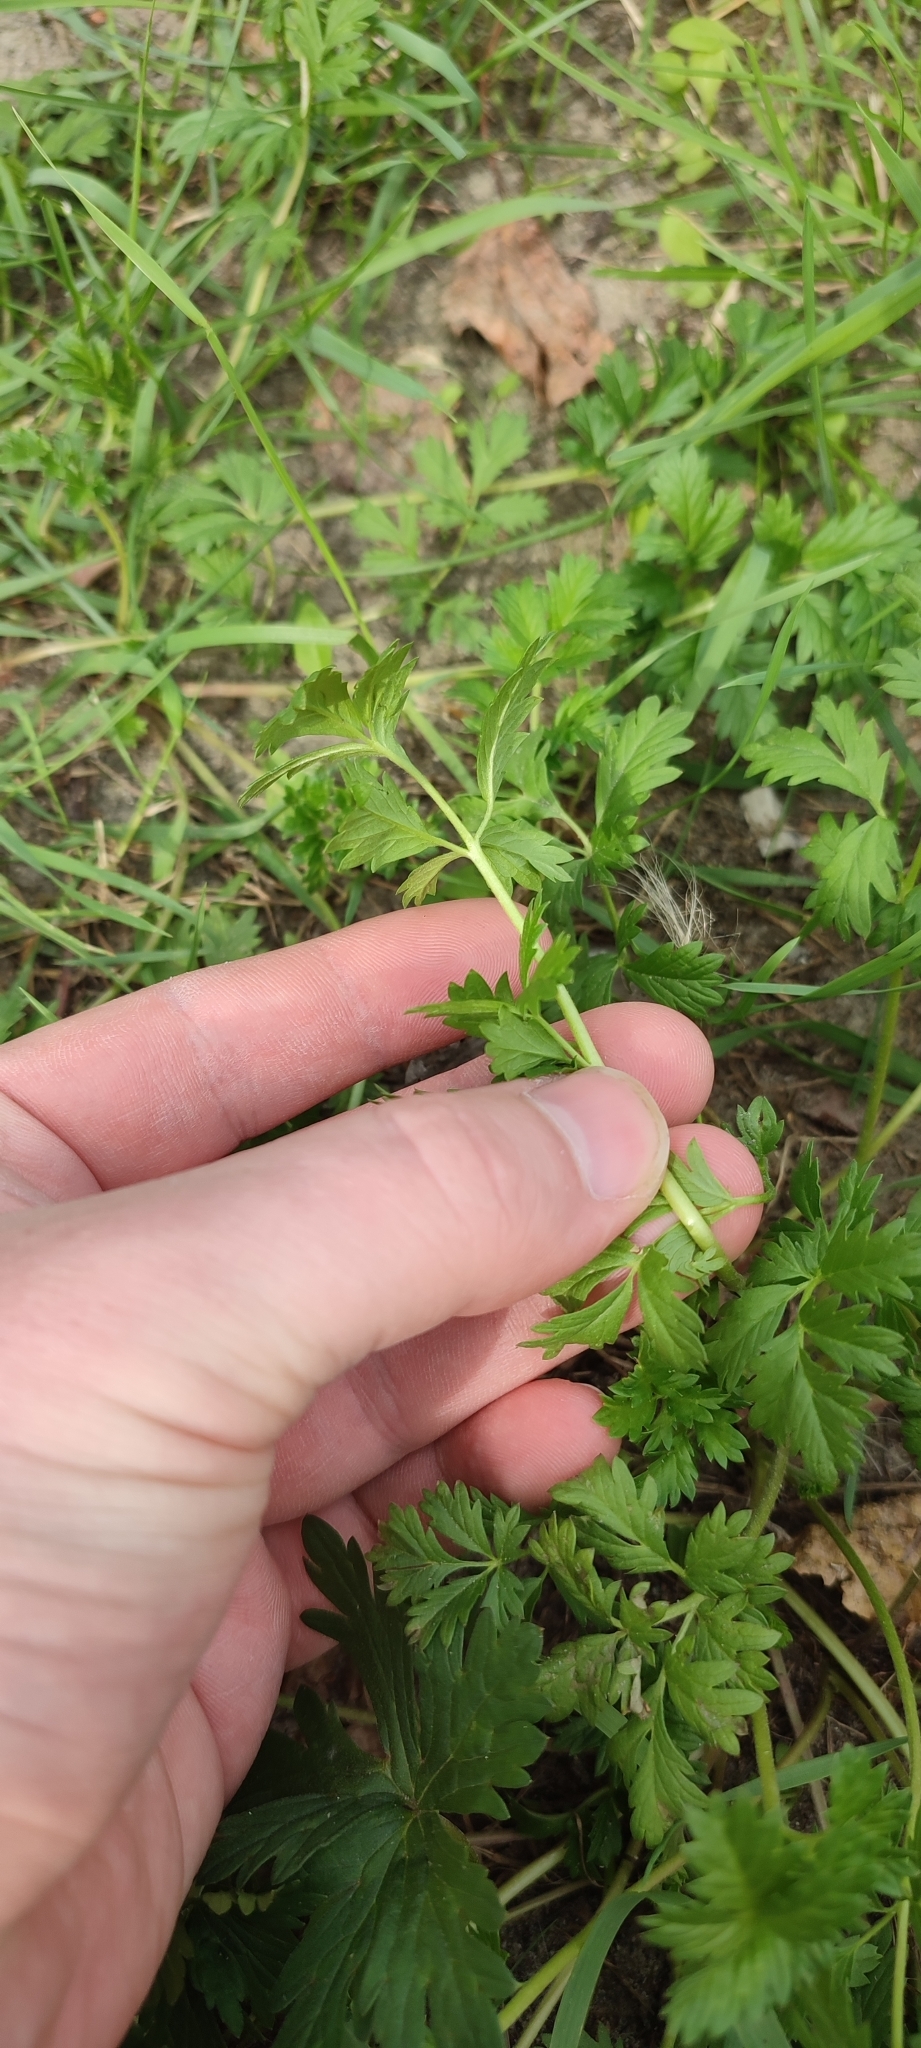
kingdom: Plantae
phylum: Tracheophyta
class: Magnoliopsida
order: Rosales
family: Rosaceae
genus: Potentilla
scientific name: Potentilla tobolensis
